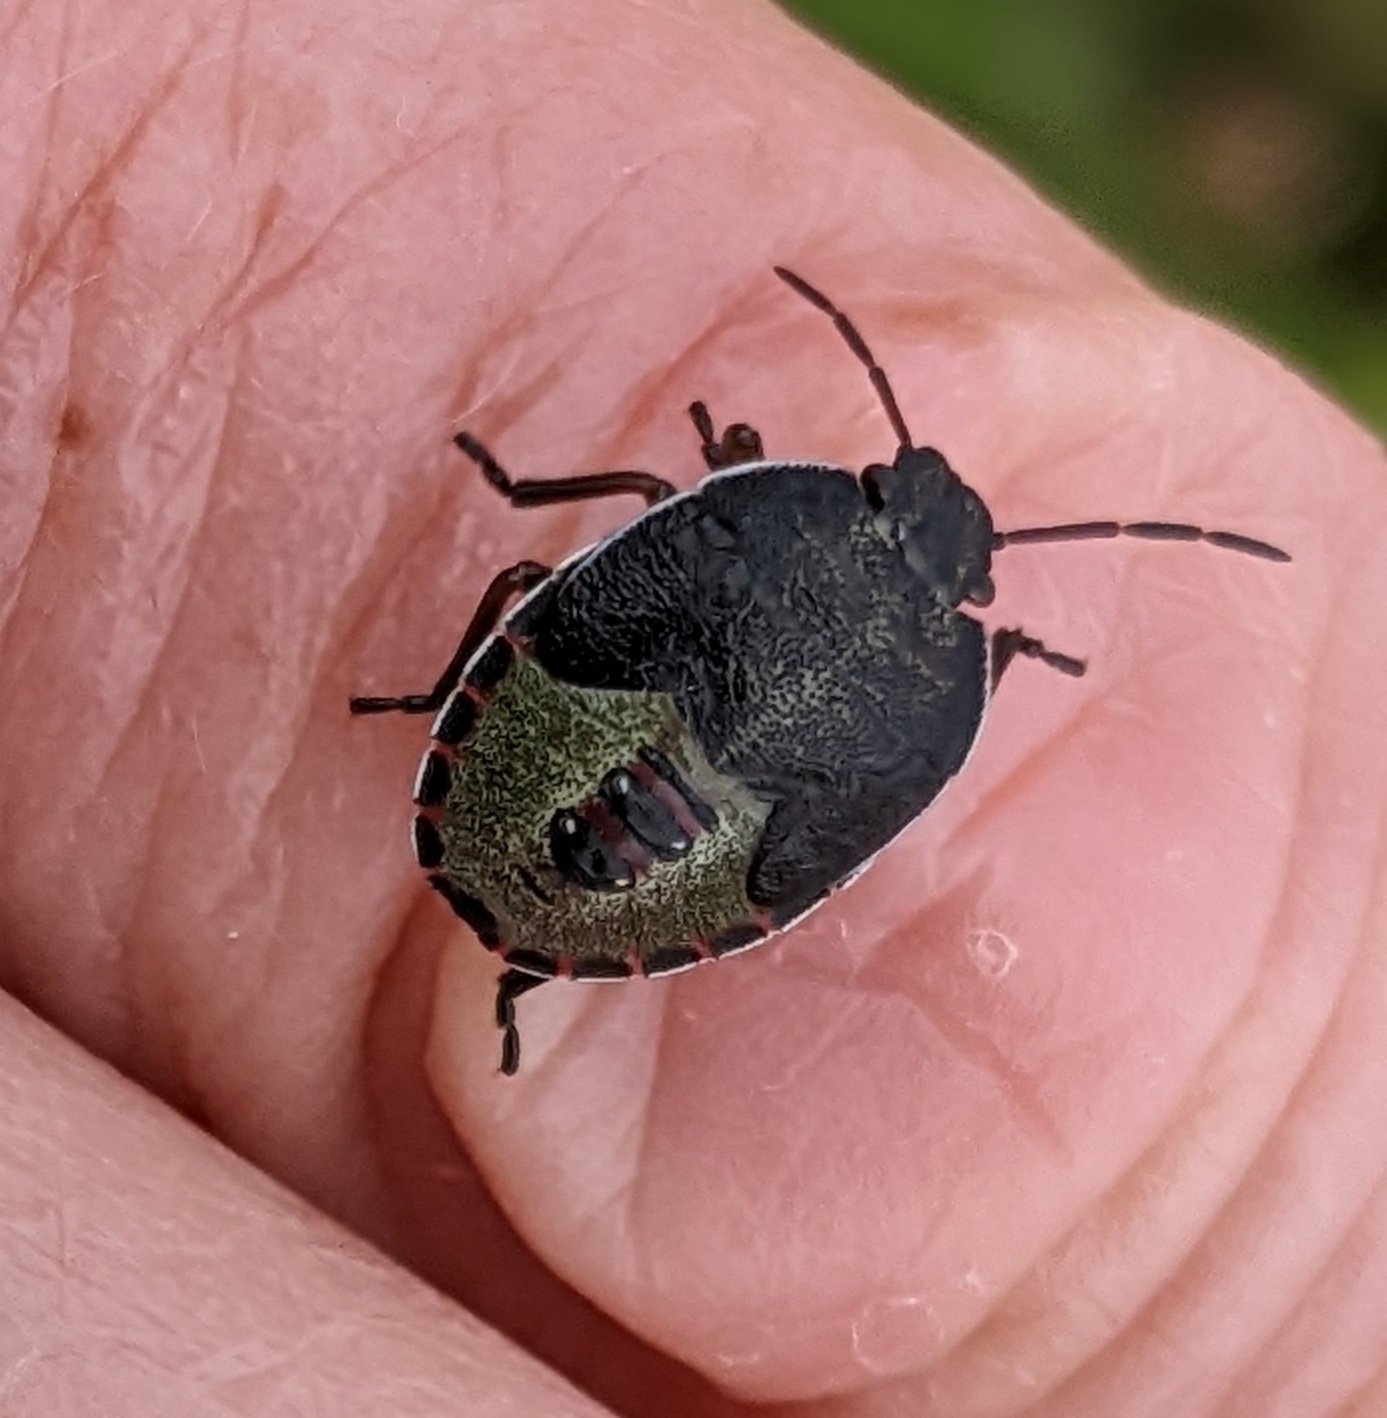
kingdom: Animalia
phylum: Arthropoda
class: Insecta
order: Hemiptera
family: Pentatomidae
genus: Piezodorus
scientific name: Piezodorus lituratus
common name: Stink bug
